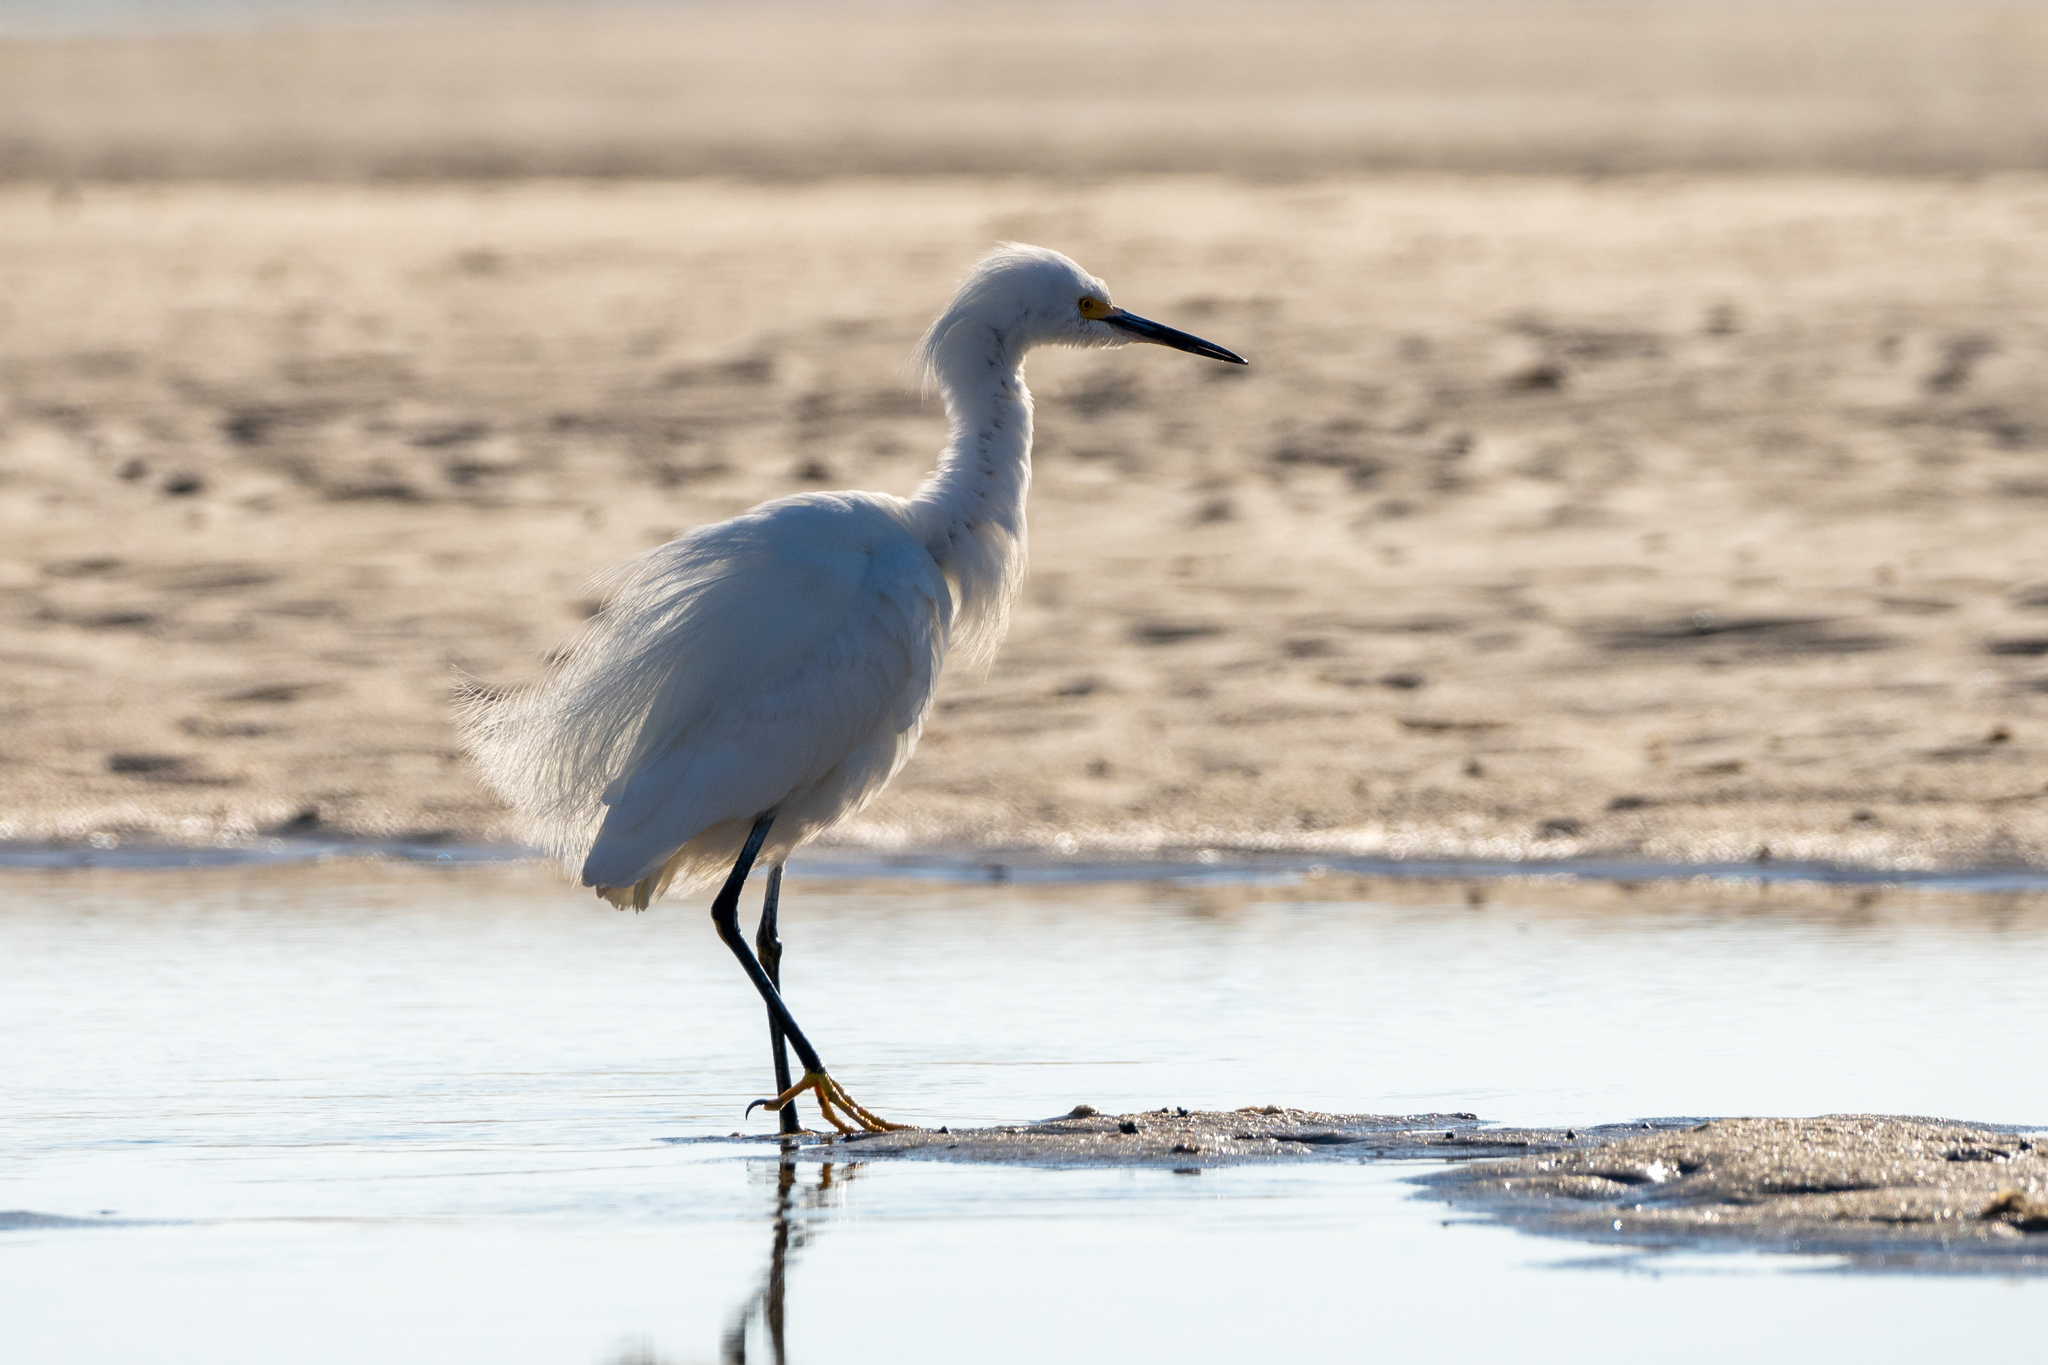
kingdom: Animalia
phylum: Chordata
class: Aves
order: Pelecaniformes
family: Ardeidae
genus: Egretta
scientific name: Egretta thula
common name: Snowy egret
